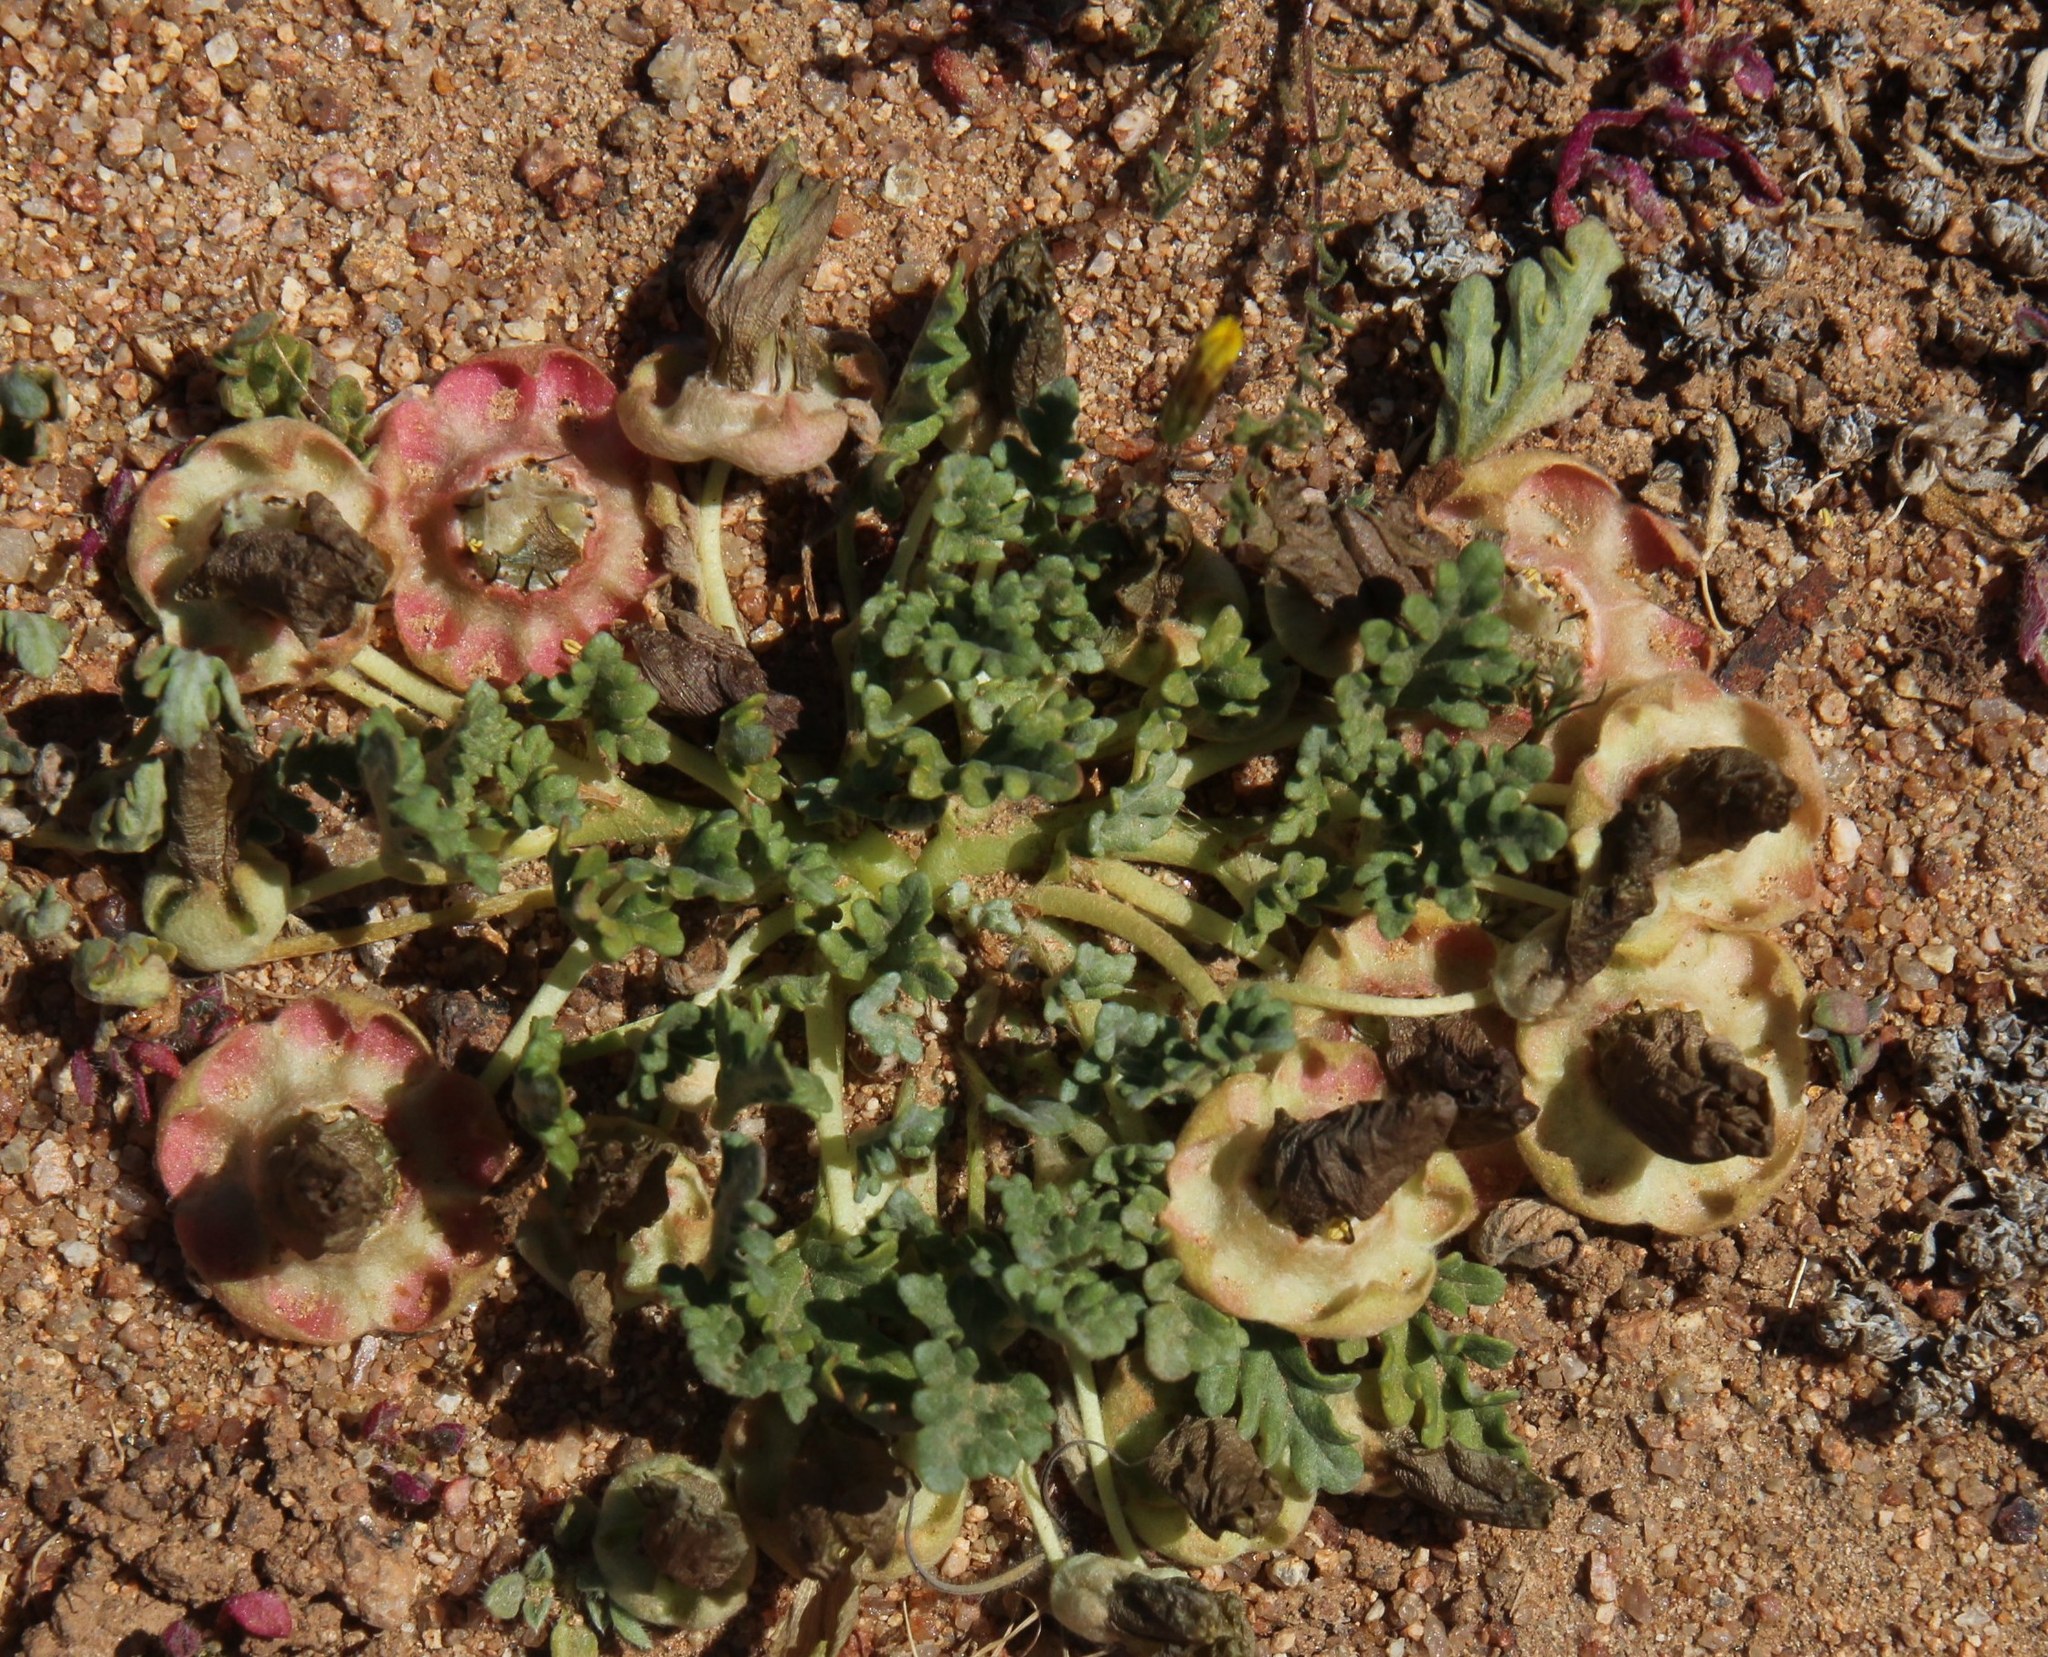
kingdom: Plantae
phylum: Tracheophyta
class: Magnoliopsida
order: Malvales
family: Neuradaceae
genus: Grielum
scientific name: Grielum humifusum
